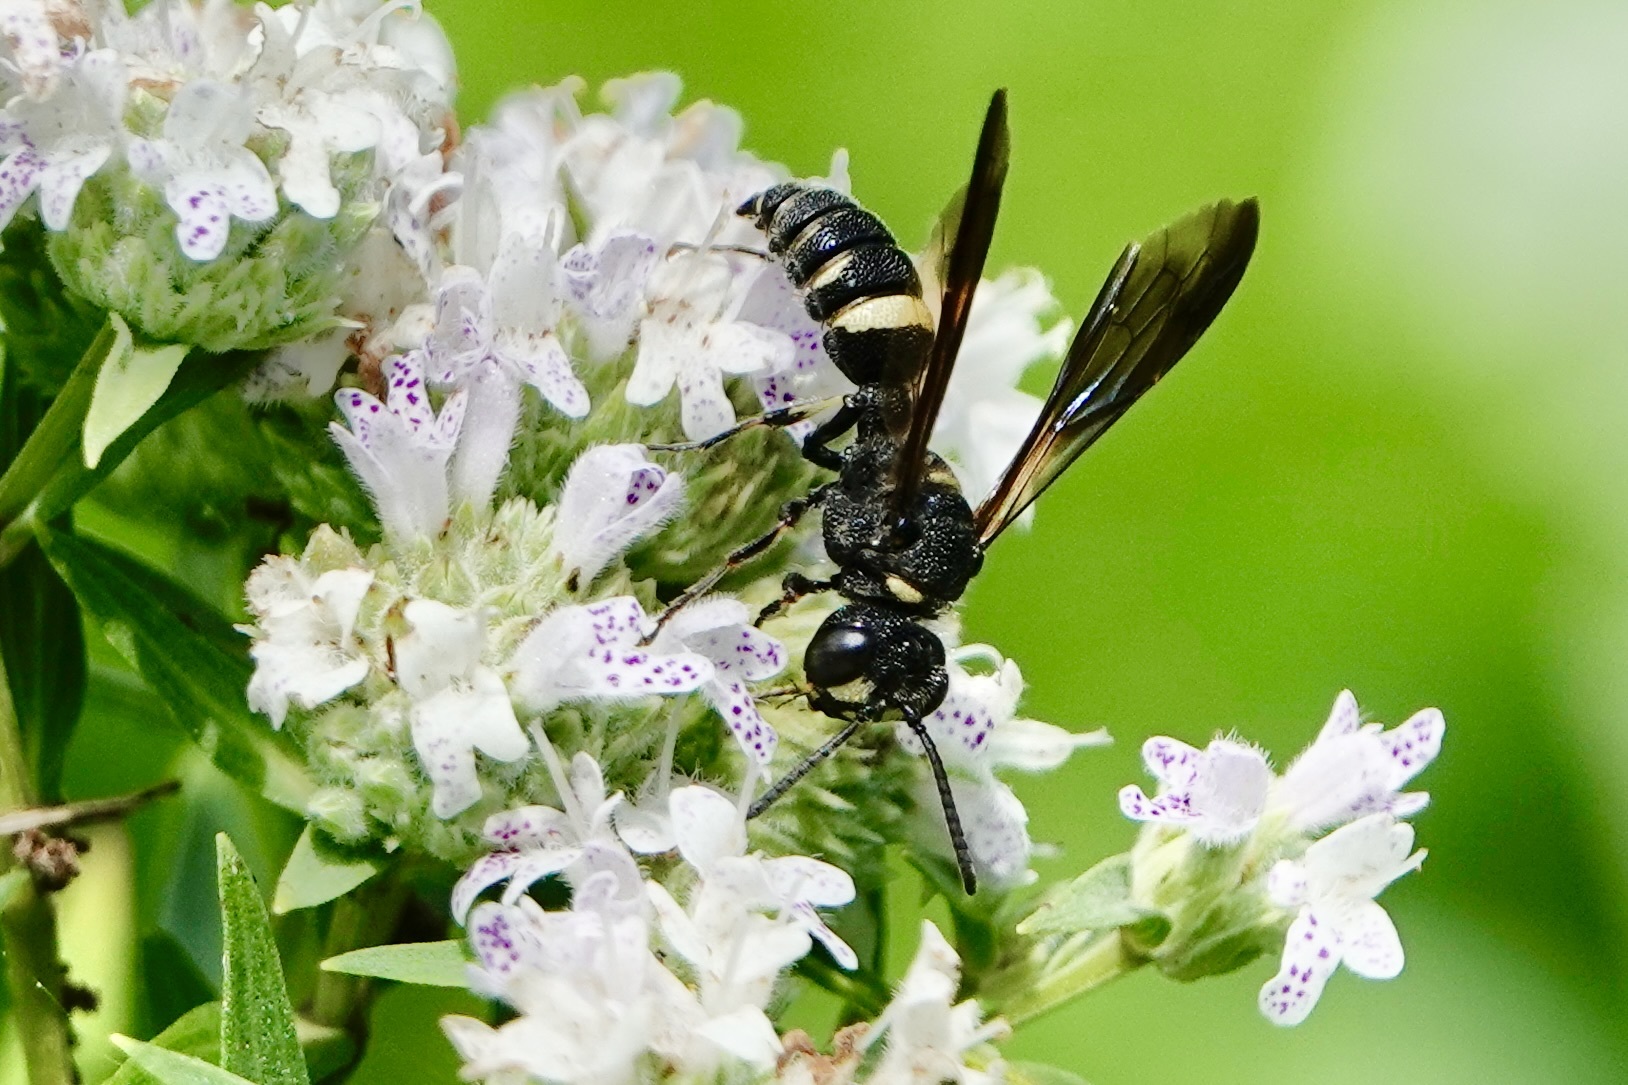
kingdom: Animalia
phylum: Arthropoda
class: Insecta
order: Hymenoptera
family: Crabronidae
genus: Cerceris
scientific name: Cerceris fumipennis
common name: Smokey-winged beetle bandit wasp
